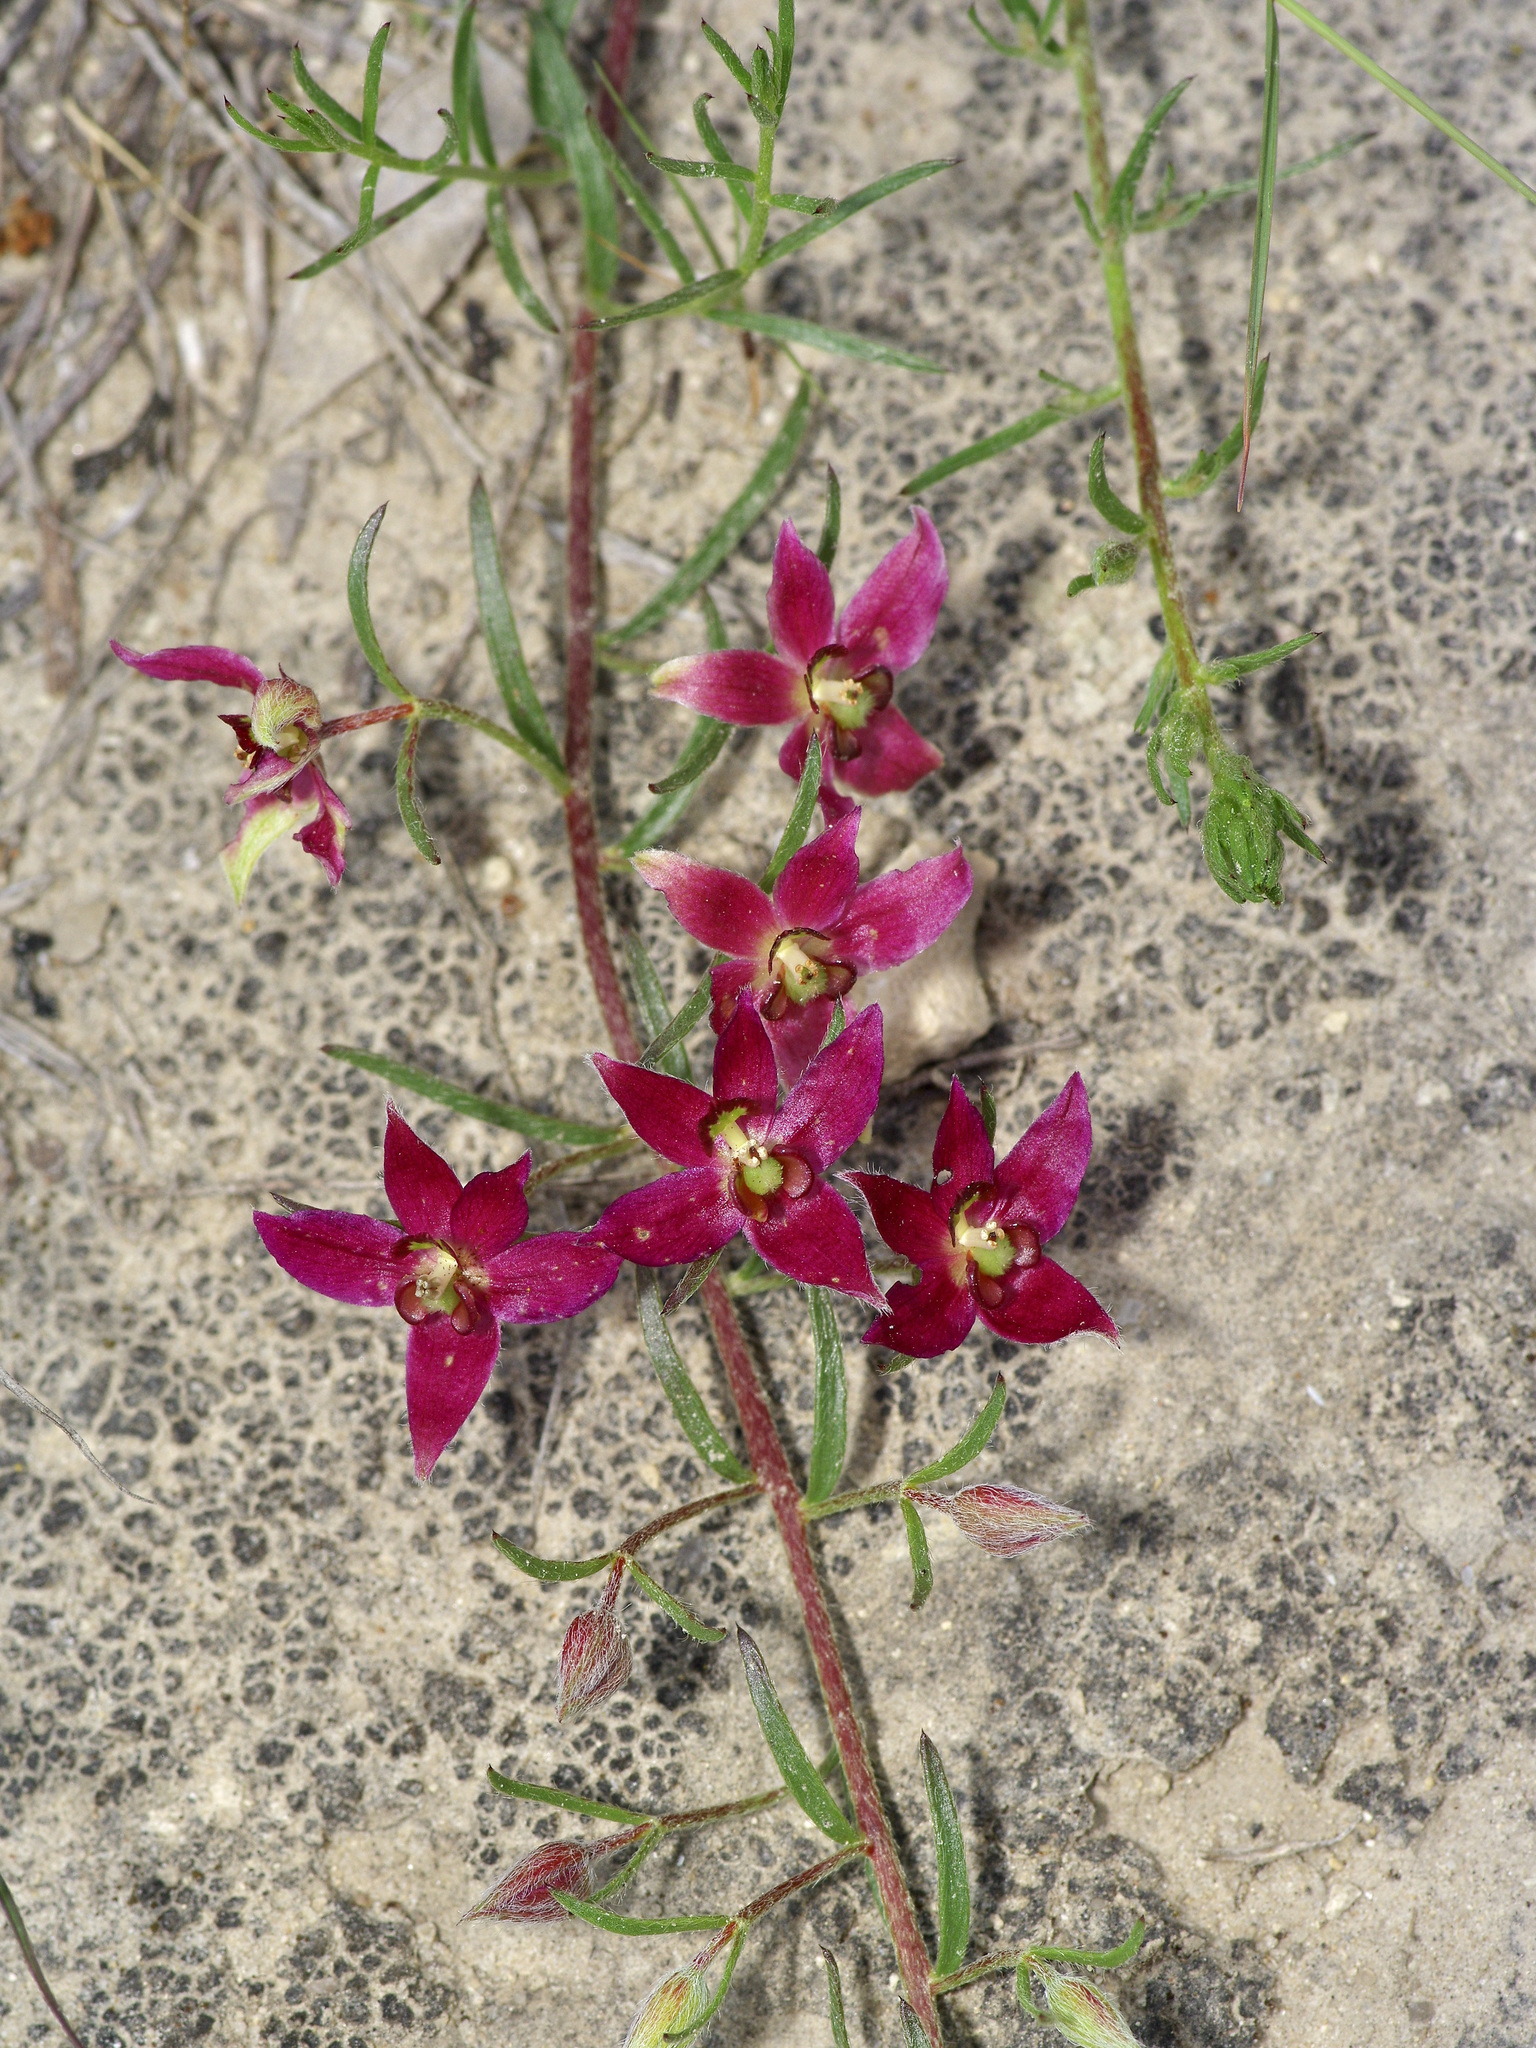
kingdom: Plantae
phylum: Tracheophyta
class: Magnoliopsida
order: Zygophyllales
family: Krameriaceae
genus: Krameria
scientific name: Krameria lanceolata
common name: Ratany
